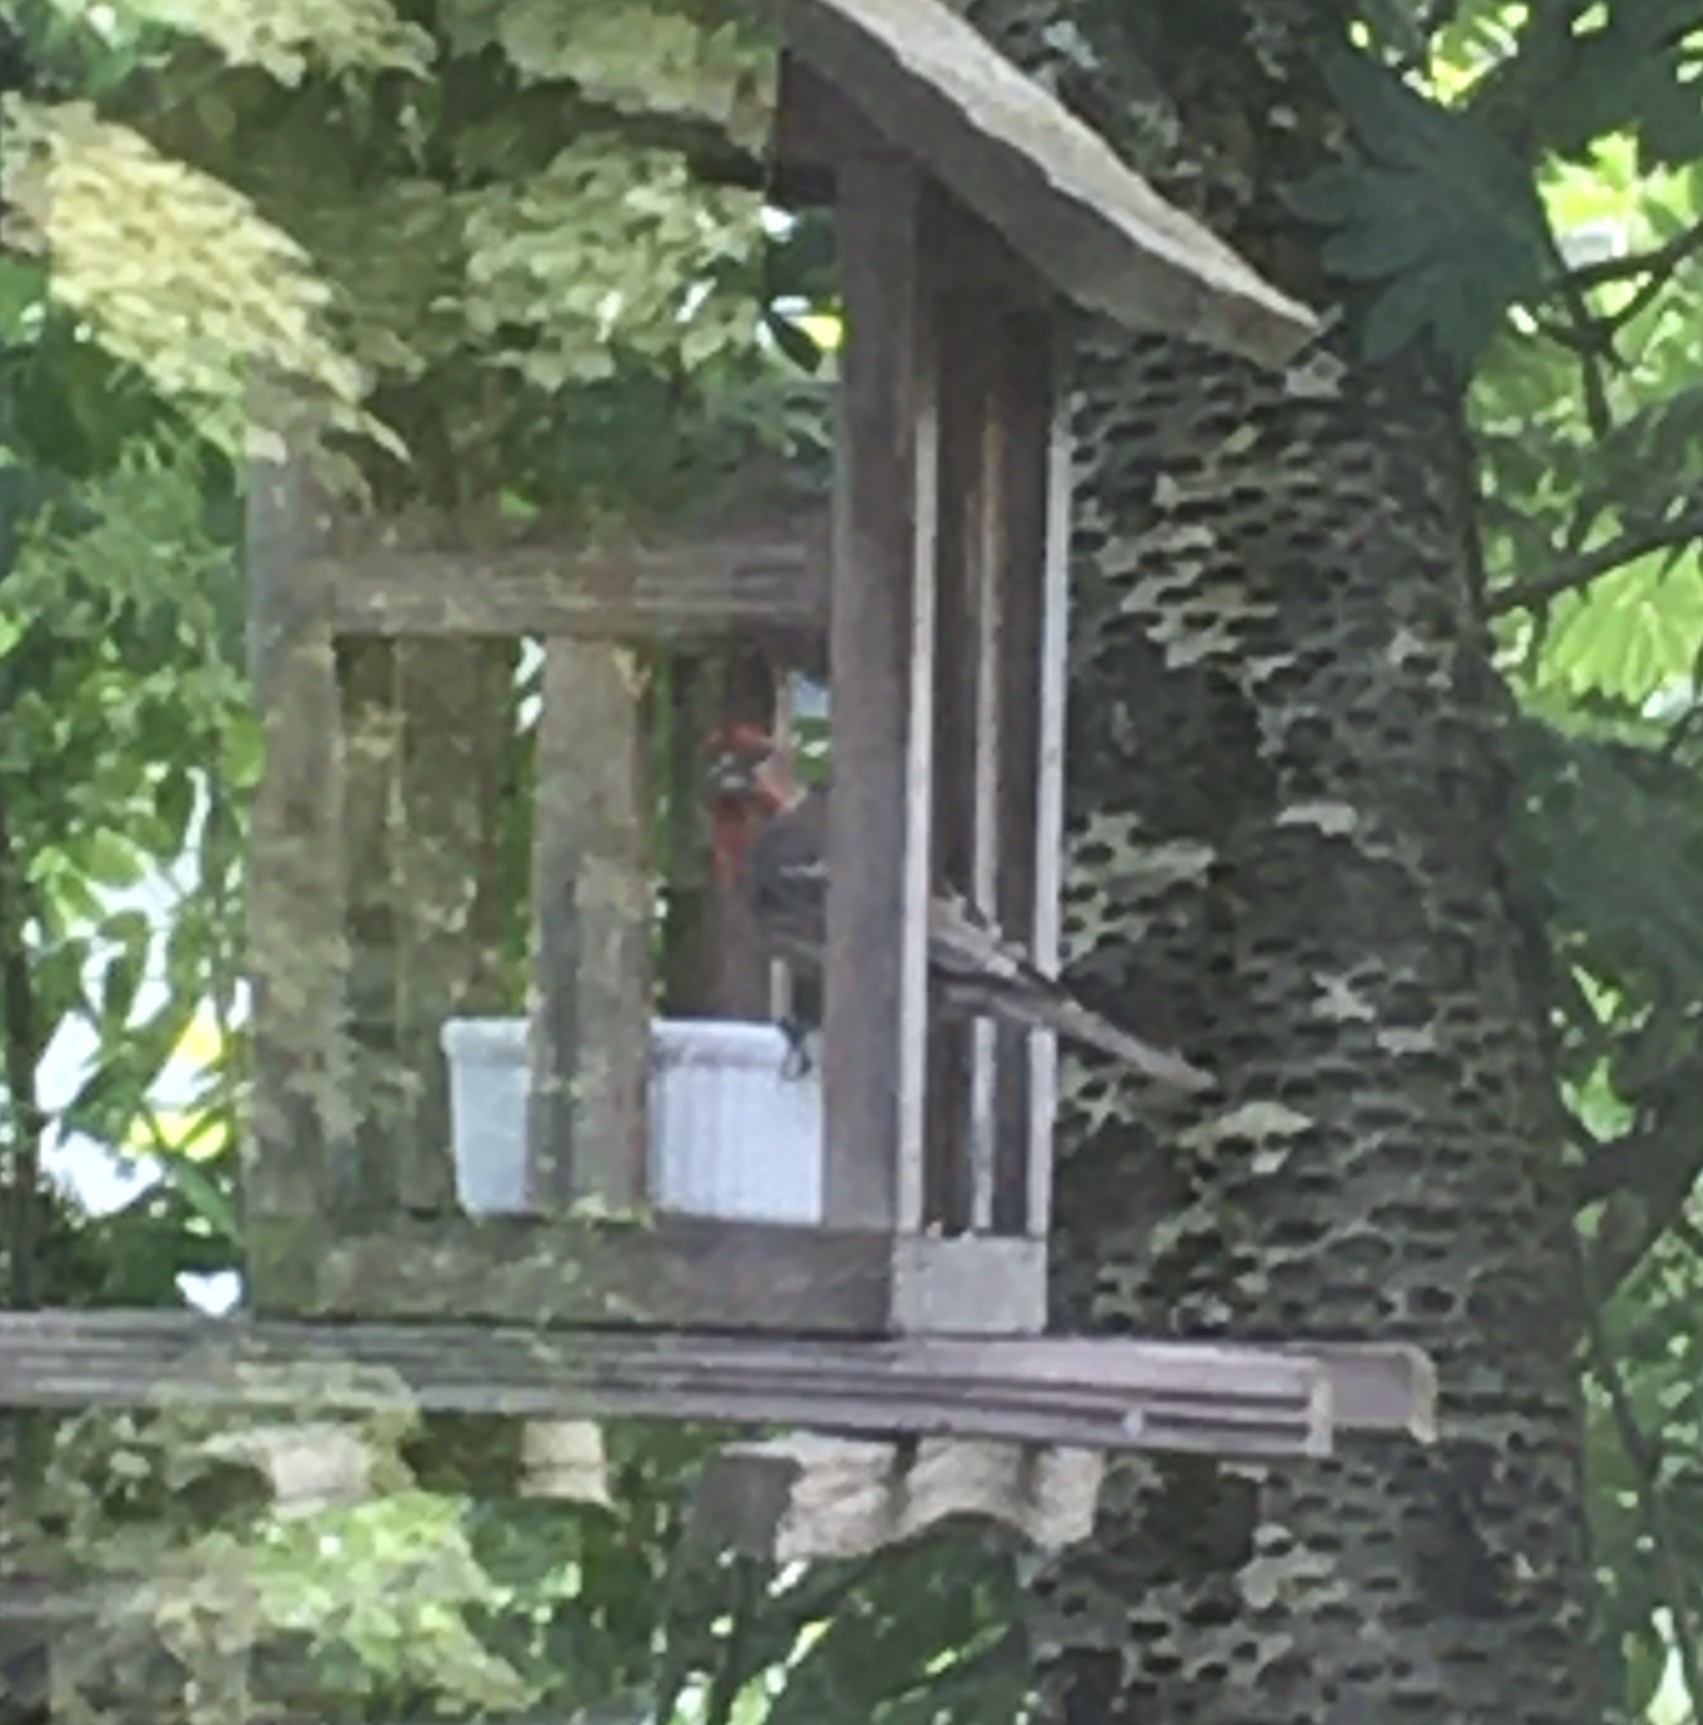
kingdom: Animalia
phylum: Chordata
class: Aves
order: Passeriformes
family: Fringillidae
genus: Haemorhous
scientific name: Haemorhous mexicanus
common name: House finch
